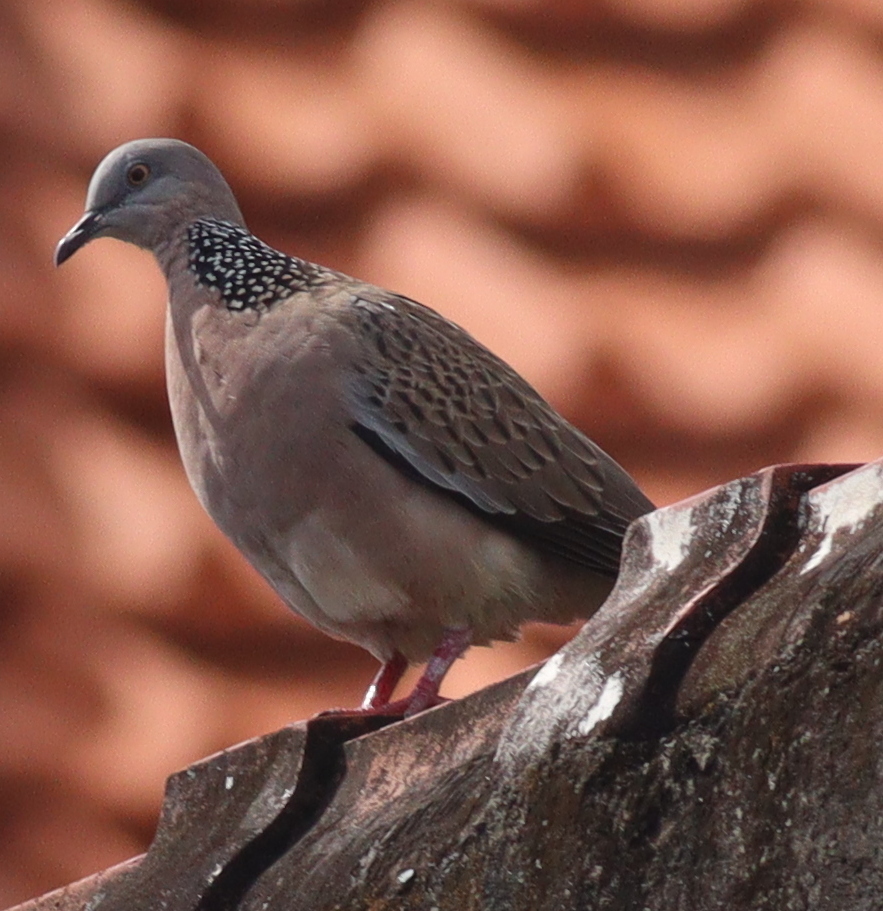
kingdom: Animalia
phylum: Chordata
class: Aves
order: Columbiformes
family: Columbidae
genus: Spilopelia
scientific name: Spilopelia chinensis
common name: Spotted dove
